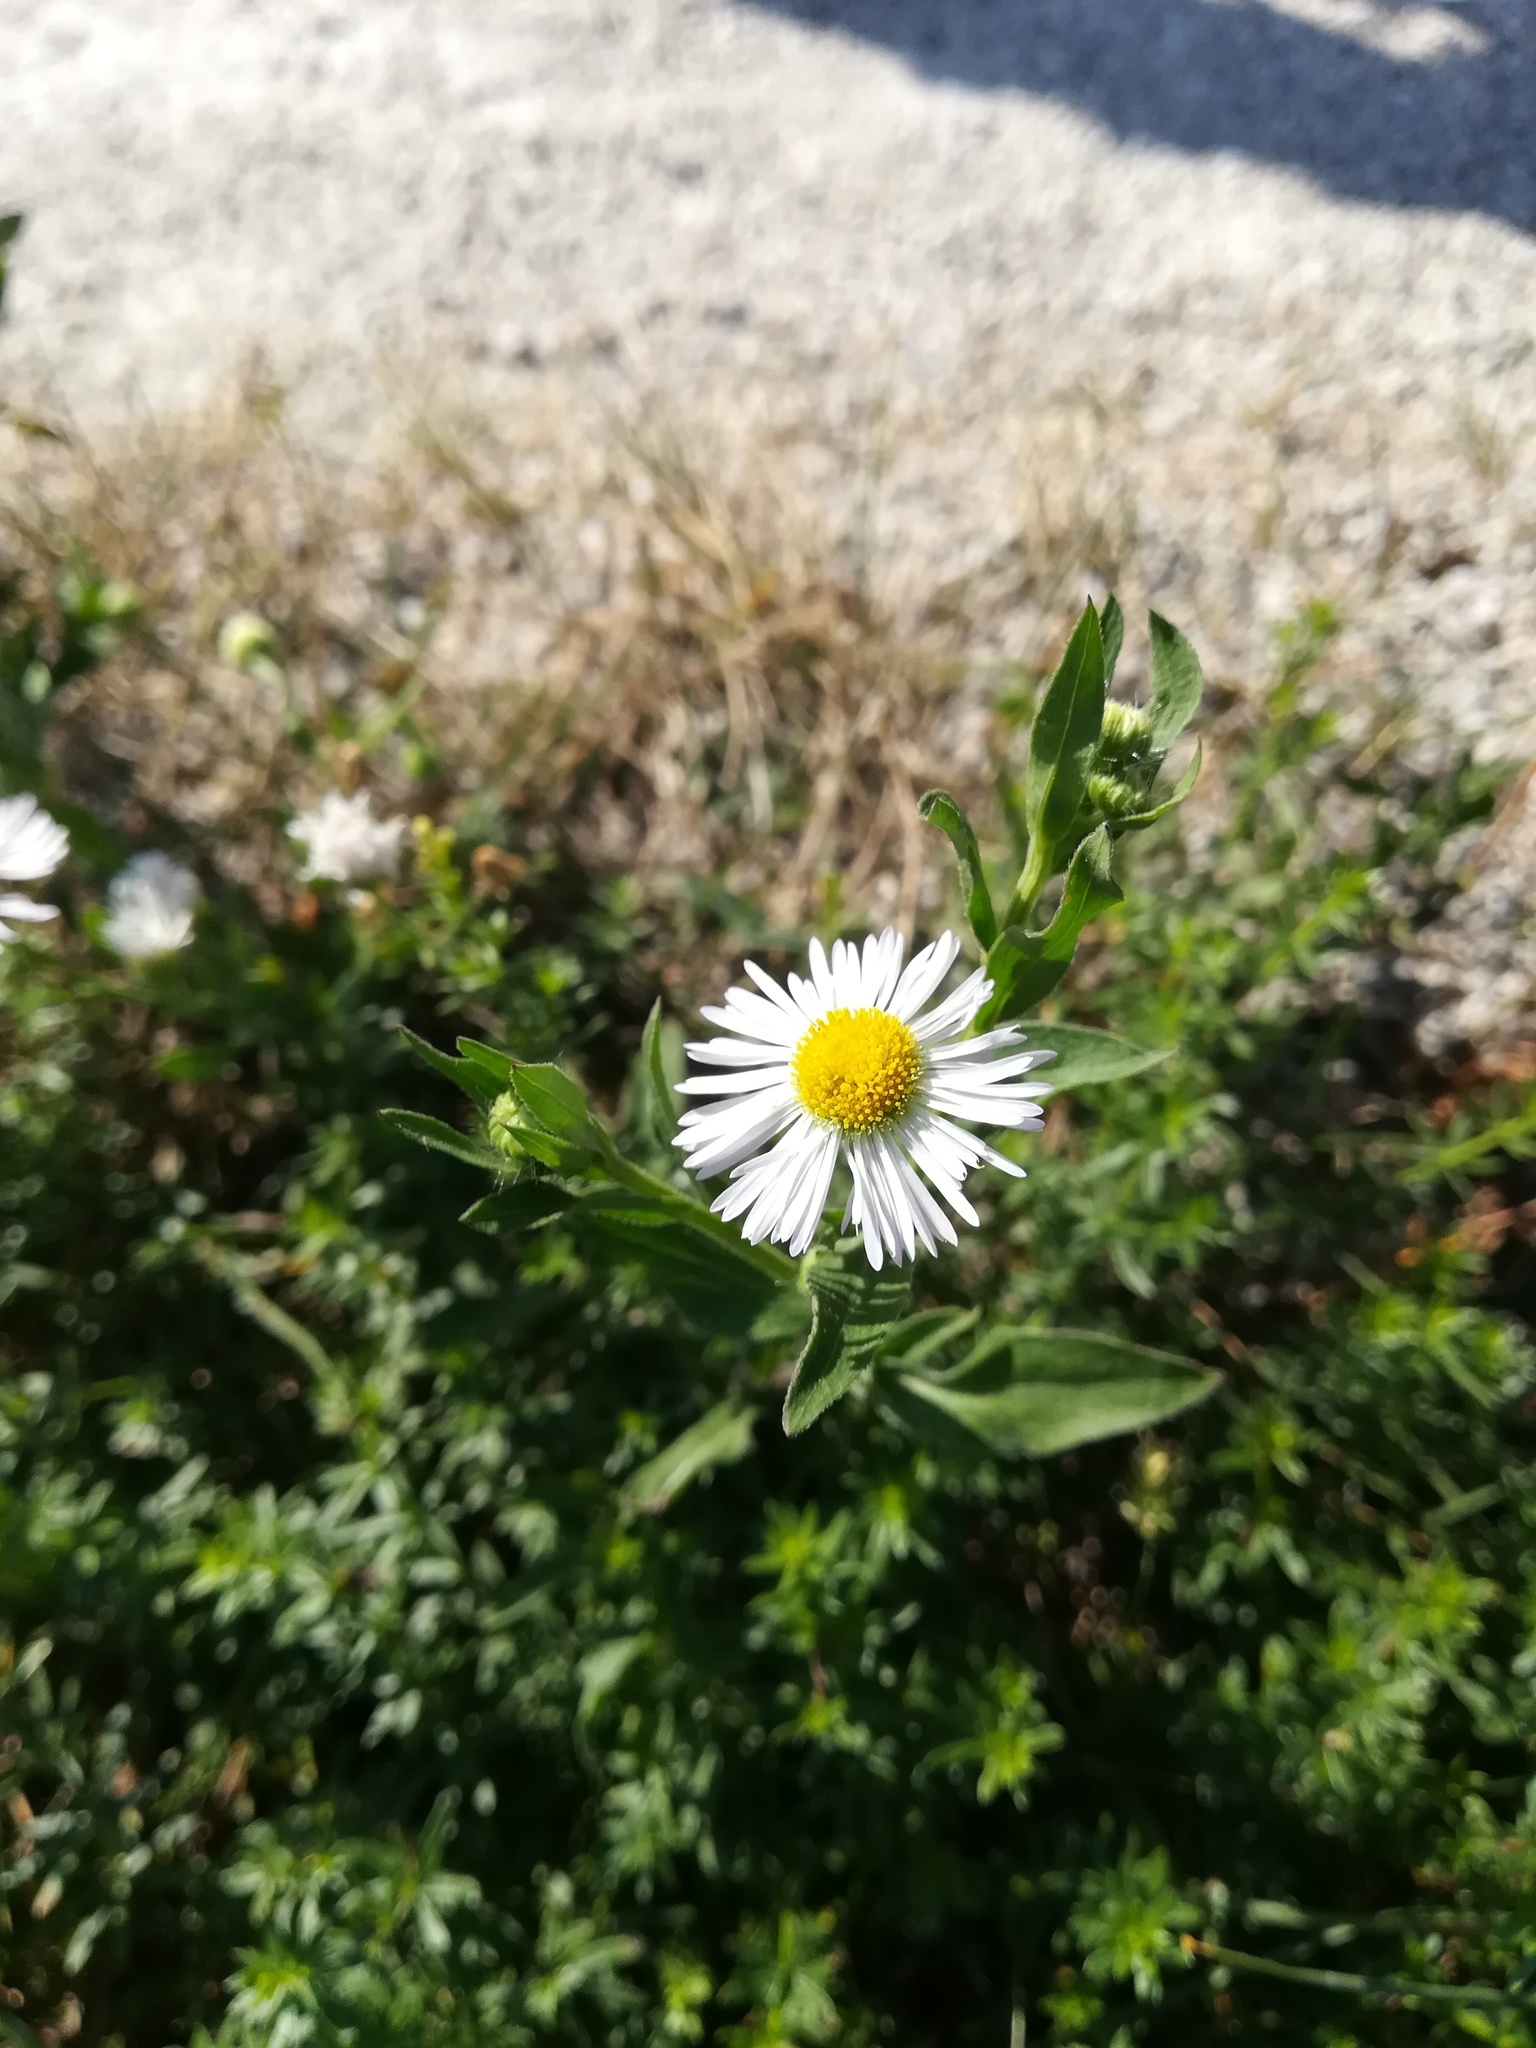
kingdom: Plantae
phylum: Tracheophyta
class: Magnoliopsida
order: Asterales
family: Asteraceae
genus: Erigeron
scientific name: Erigeron annuus
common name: Tall fleabane
